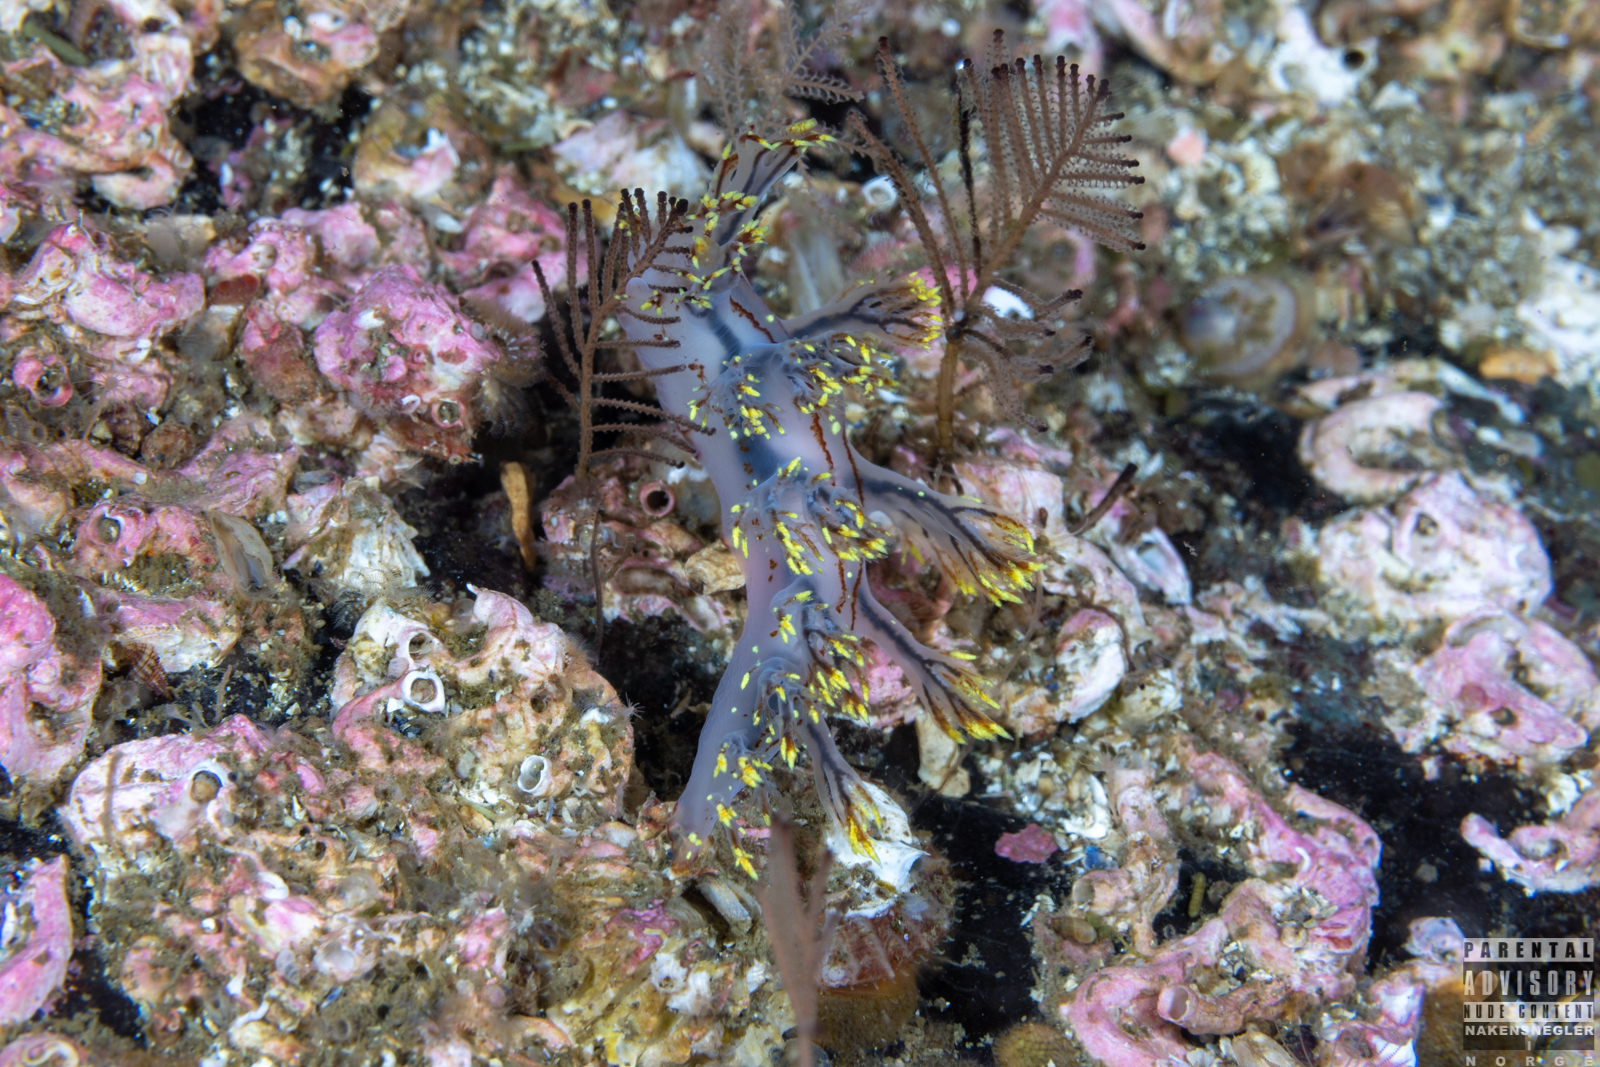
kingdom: Animalia
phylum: Mollusca
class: Gastropoda
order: Nudibranchia
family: Dendronotidae
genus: Dendronotus
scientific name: Dendronotus yrjargul
